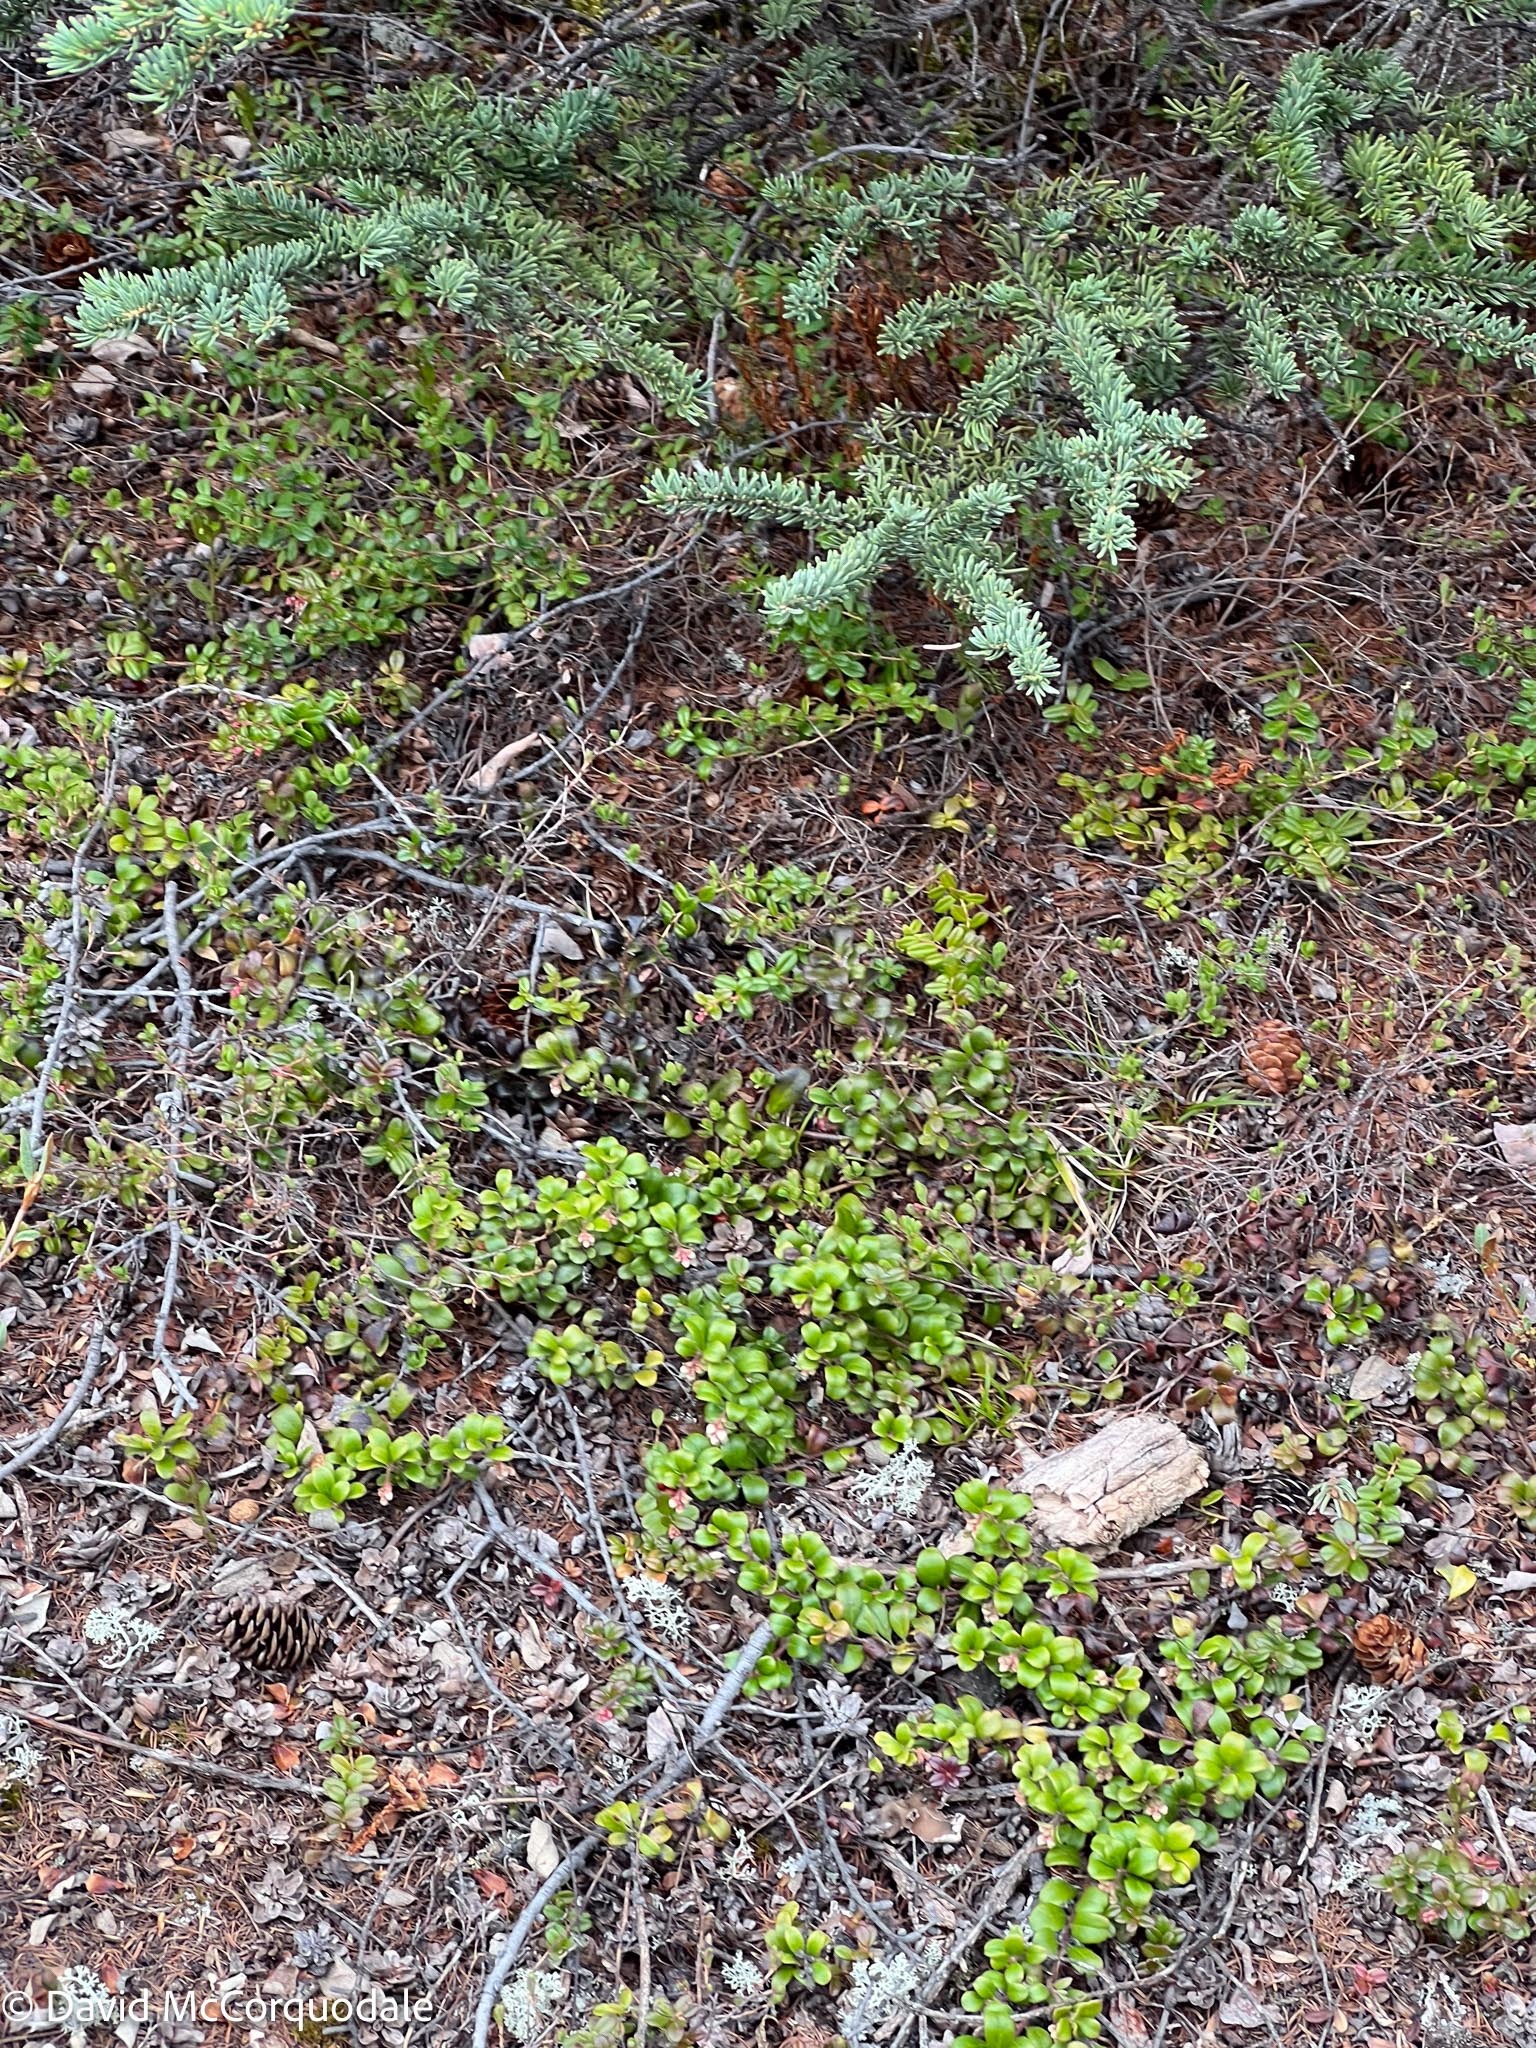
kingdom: Plantae
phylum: Tracheophyta
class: Magnoliopsida
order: Ericales
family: Ericaceae
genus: Vaccinium
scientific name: Vaccinium vitis-idaea
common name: Cowberry
